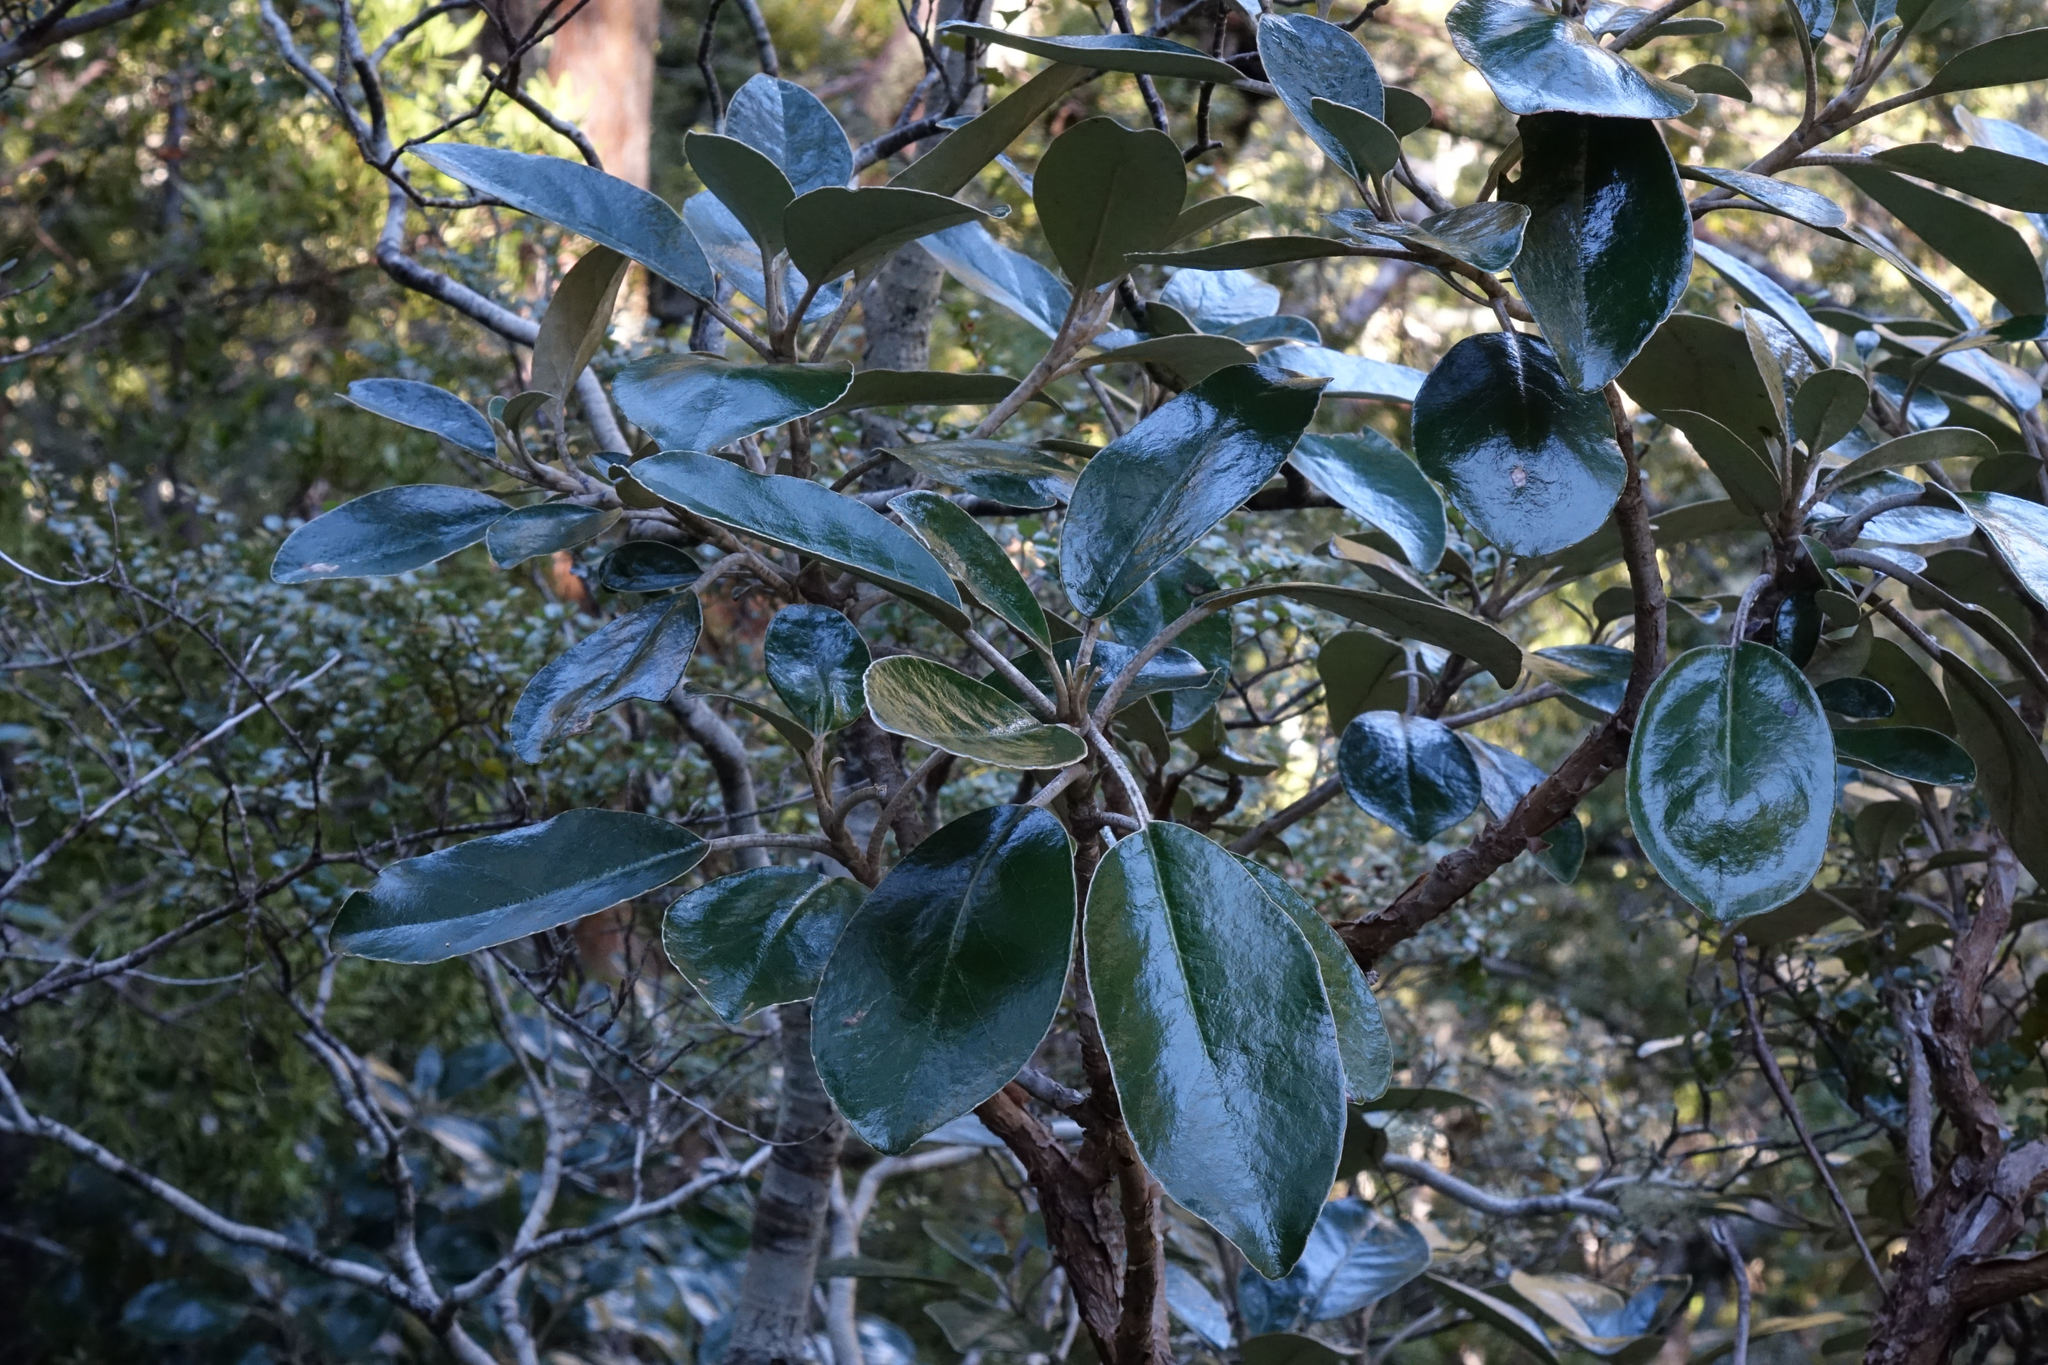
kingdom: Plantae
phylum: Tracheophyta
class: Magnoliopsida
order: Asterales
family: Asteraceae
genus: Brachyglottis
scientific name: Brachyglottis buchananii
